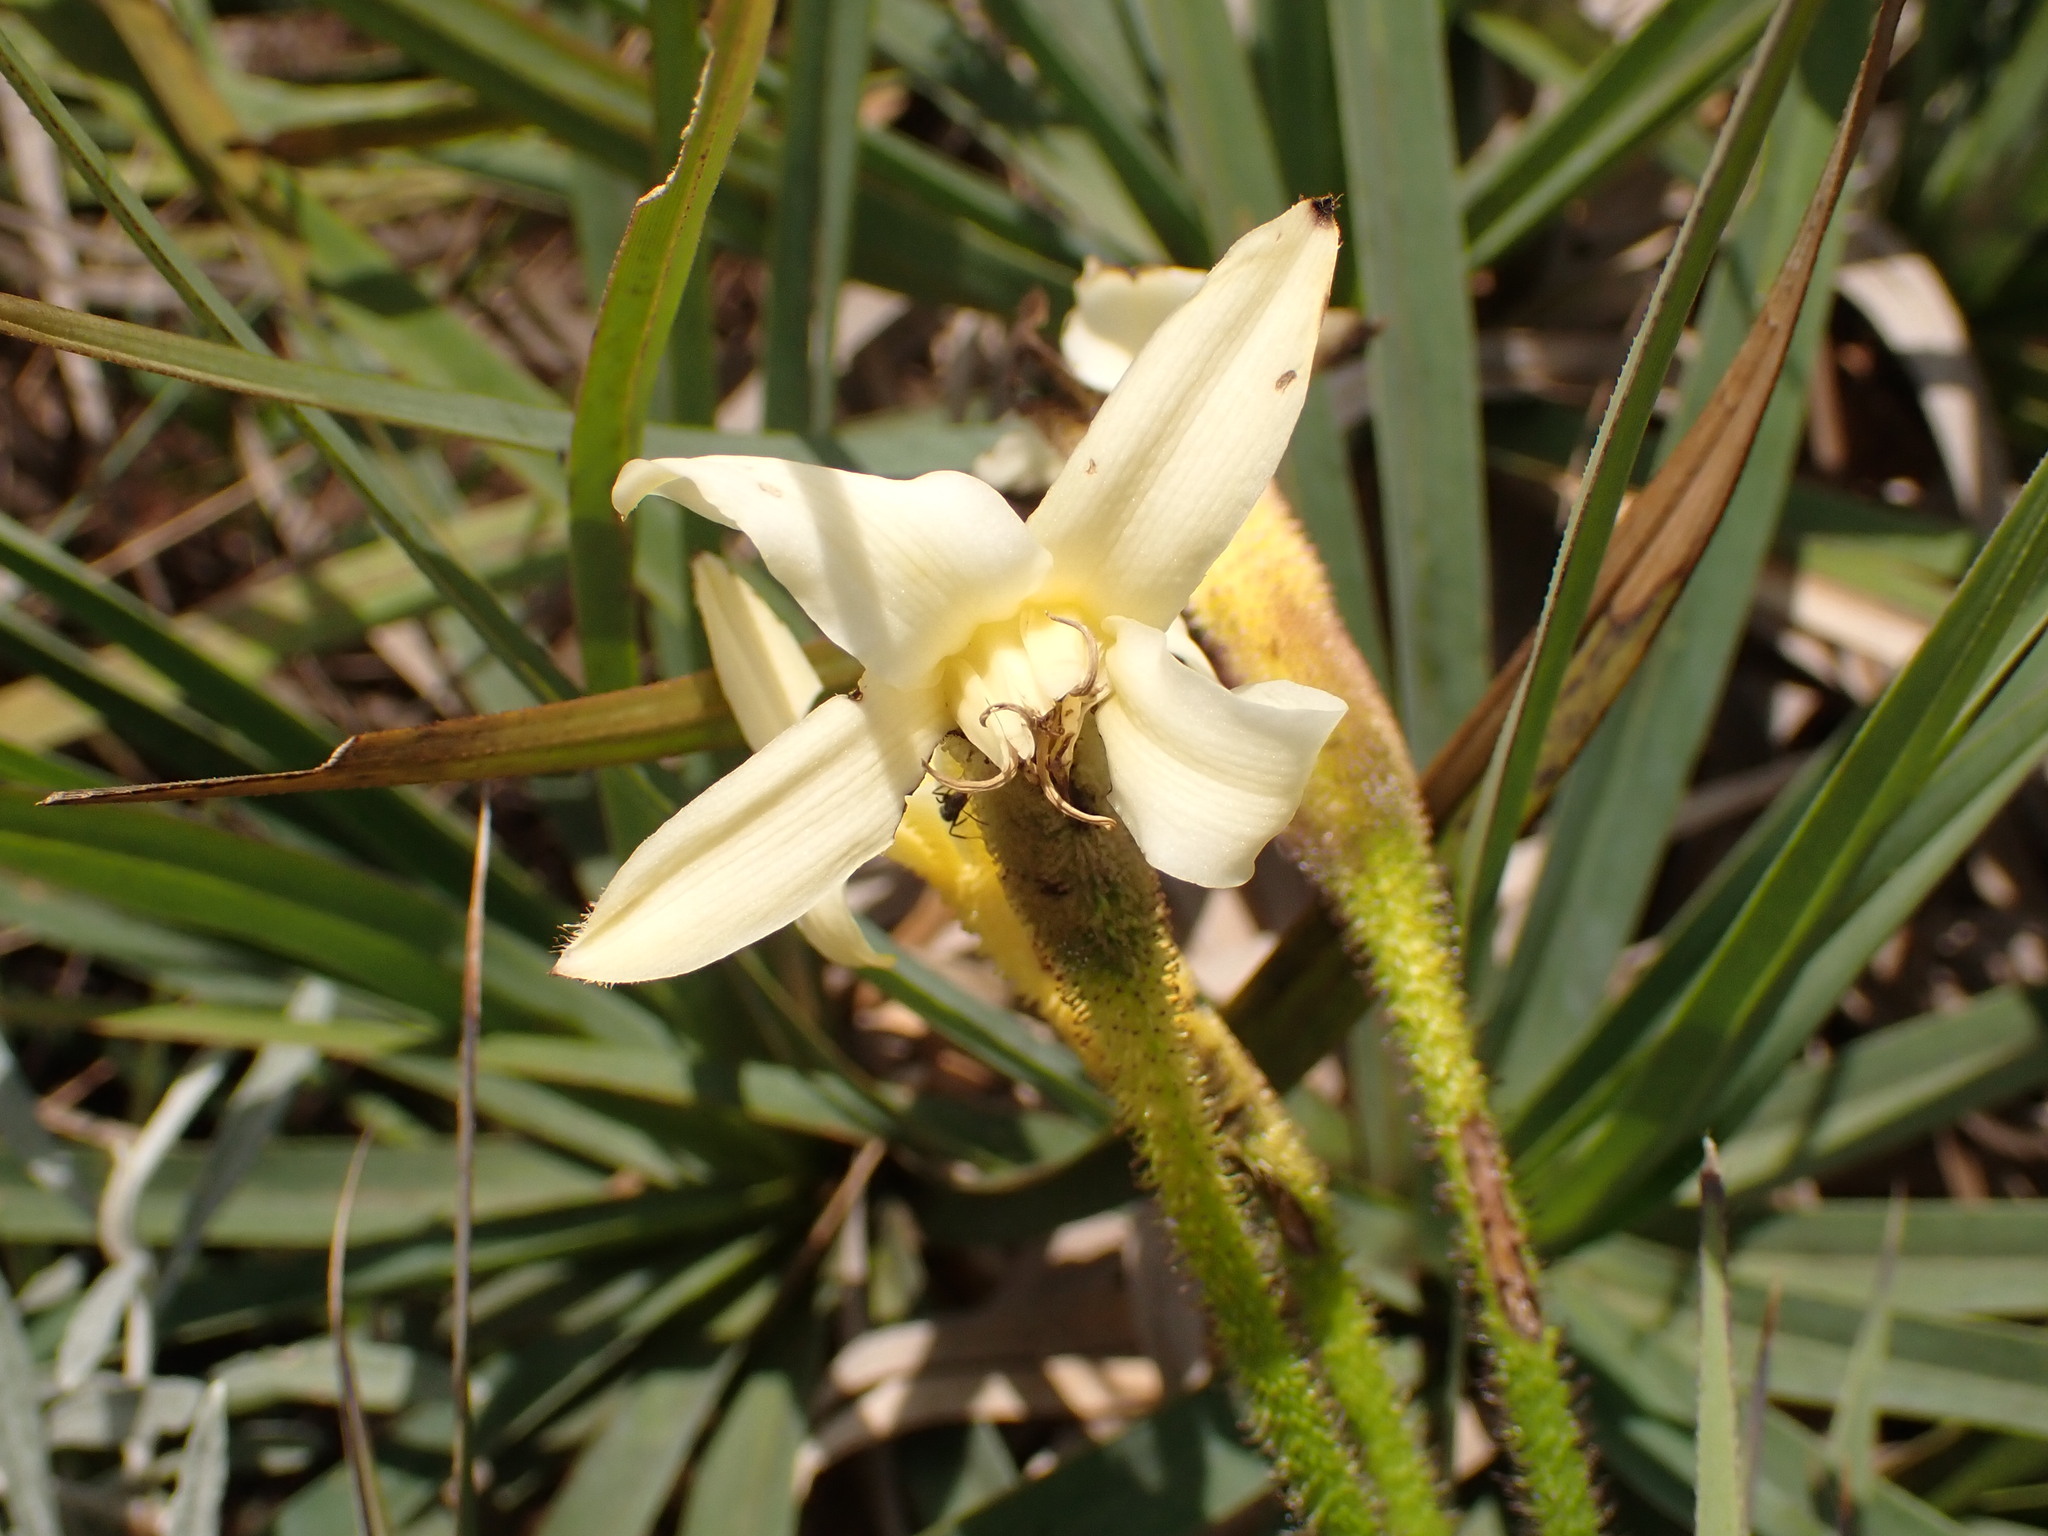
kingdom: Plantae
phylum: Tracheophyta
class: Liliopsida
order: Pandanales
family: Velloziaceae
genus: Barbacenia
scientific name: Barbacenia itabirensis
